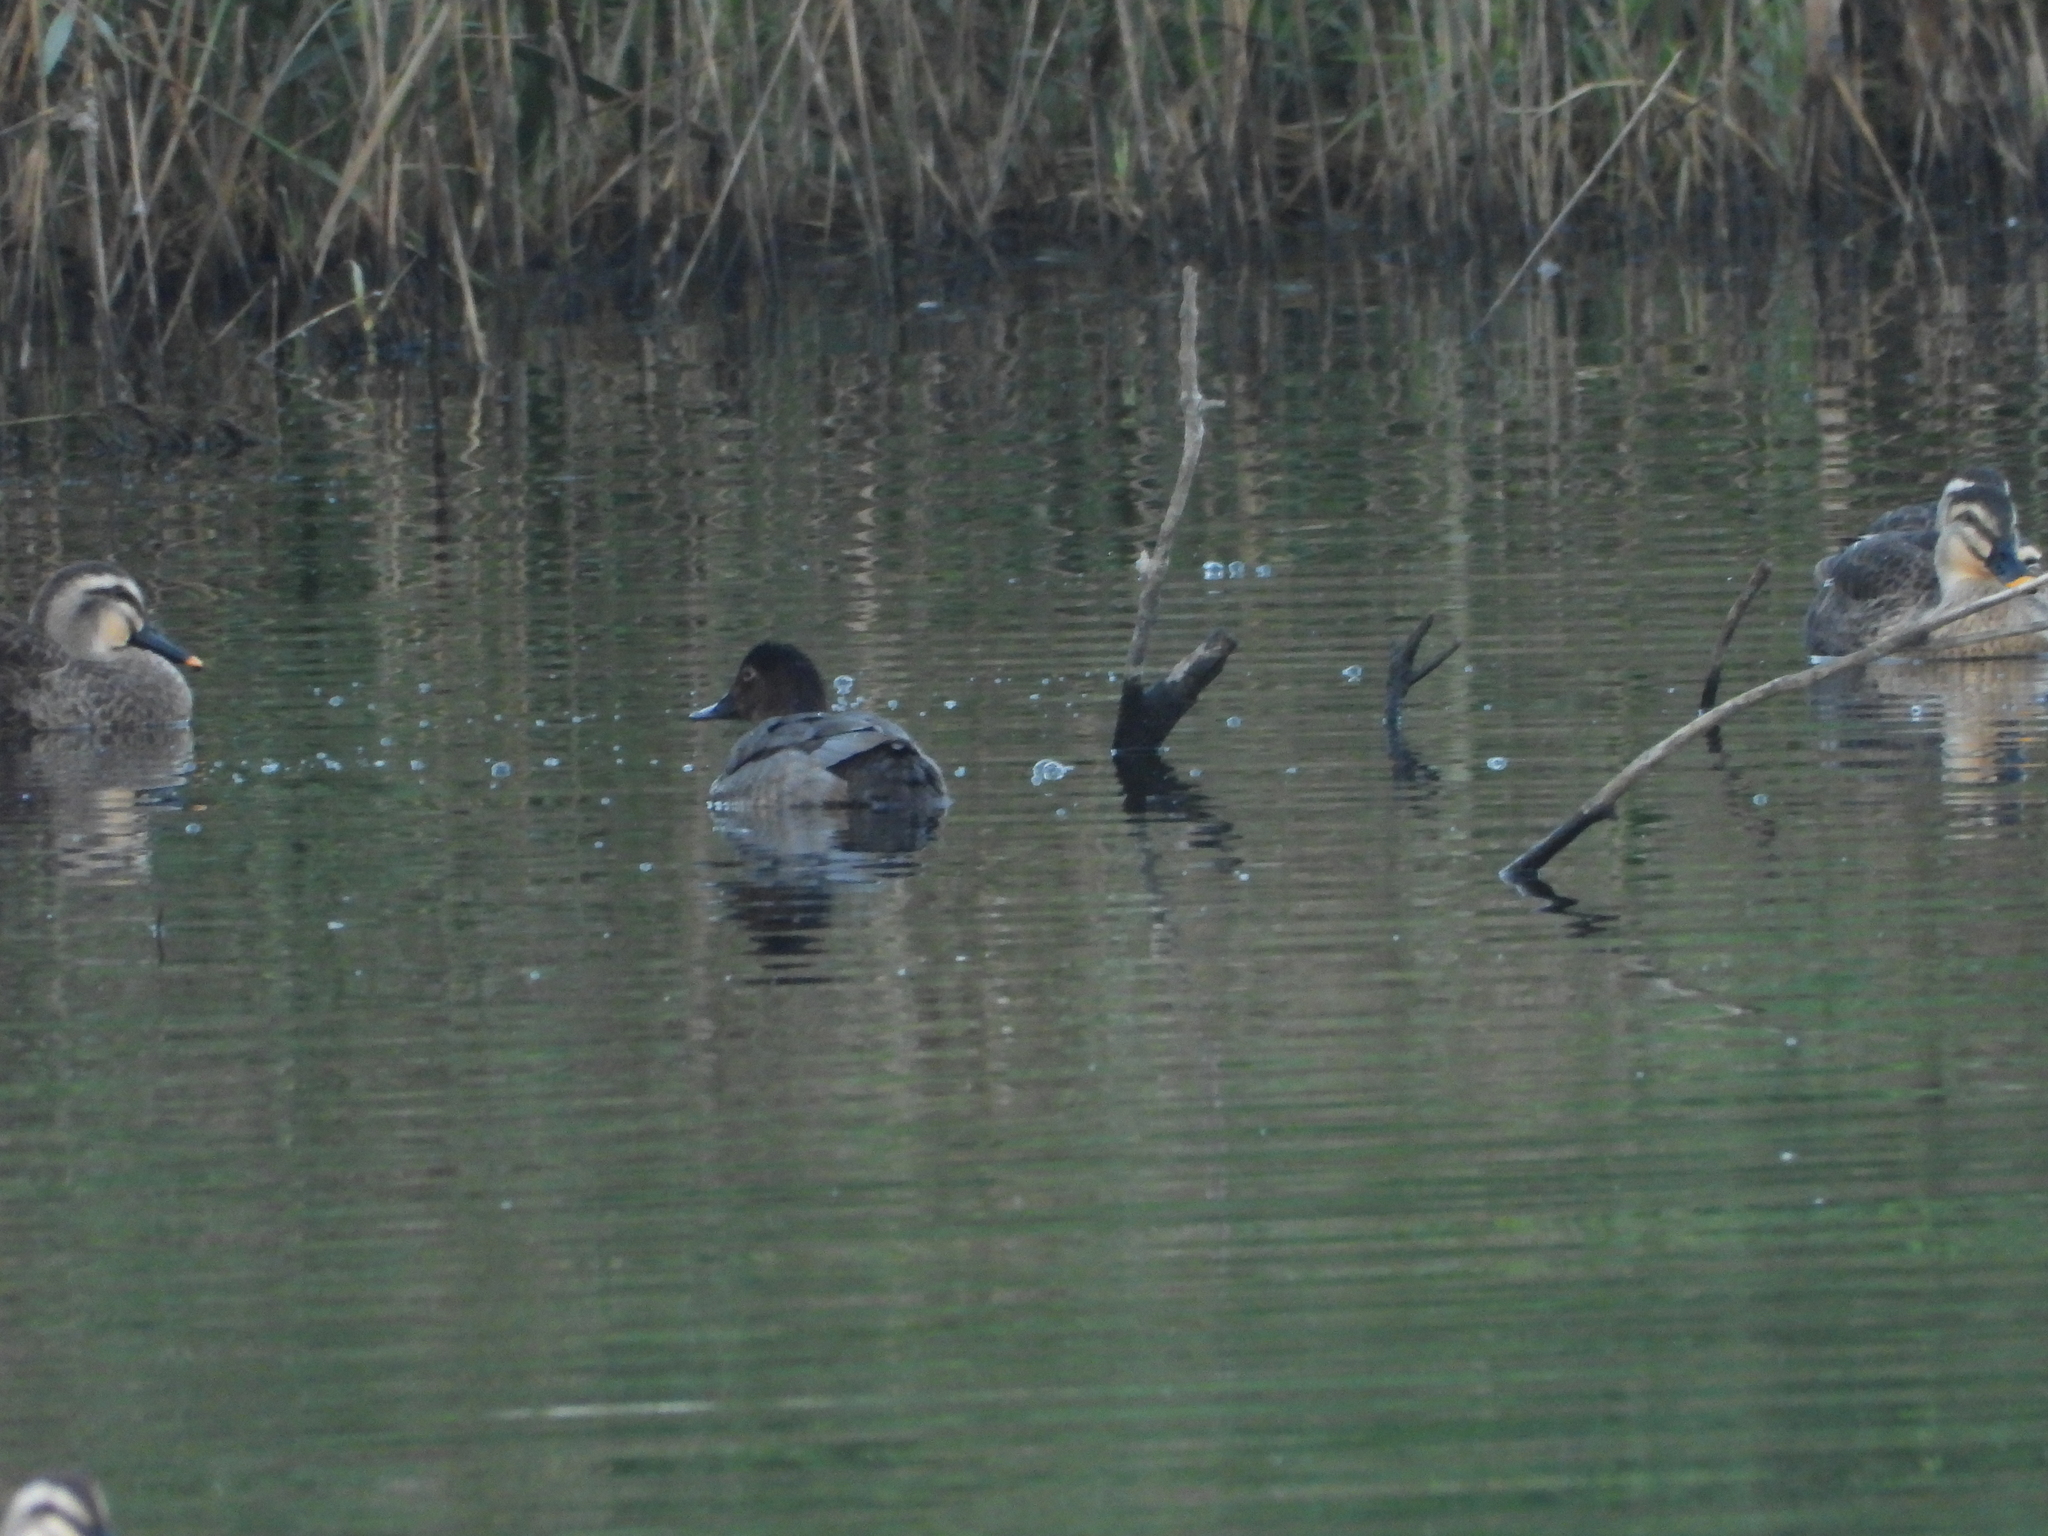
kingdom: Animalia
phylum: Chordata
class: Aves
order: Anseriformes
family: Anatidae
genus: Aythya
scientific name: Aythya ferina
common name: Common pochard
